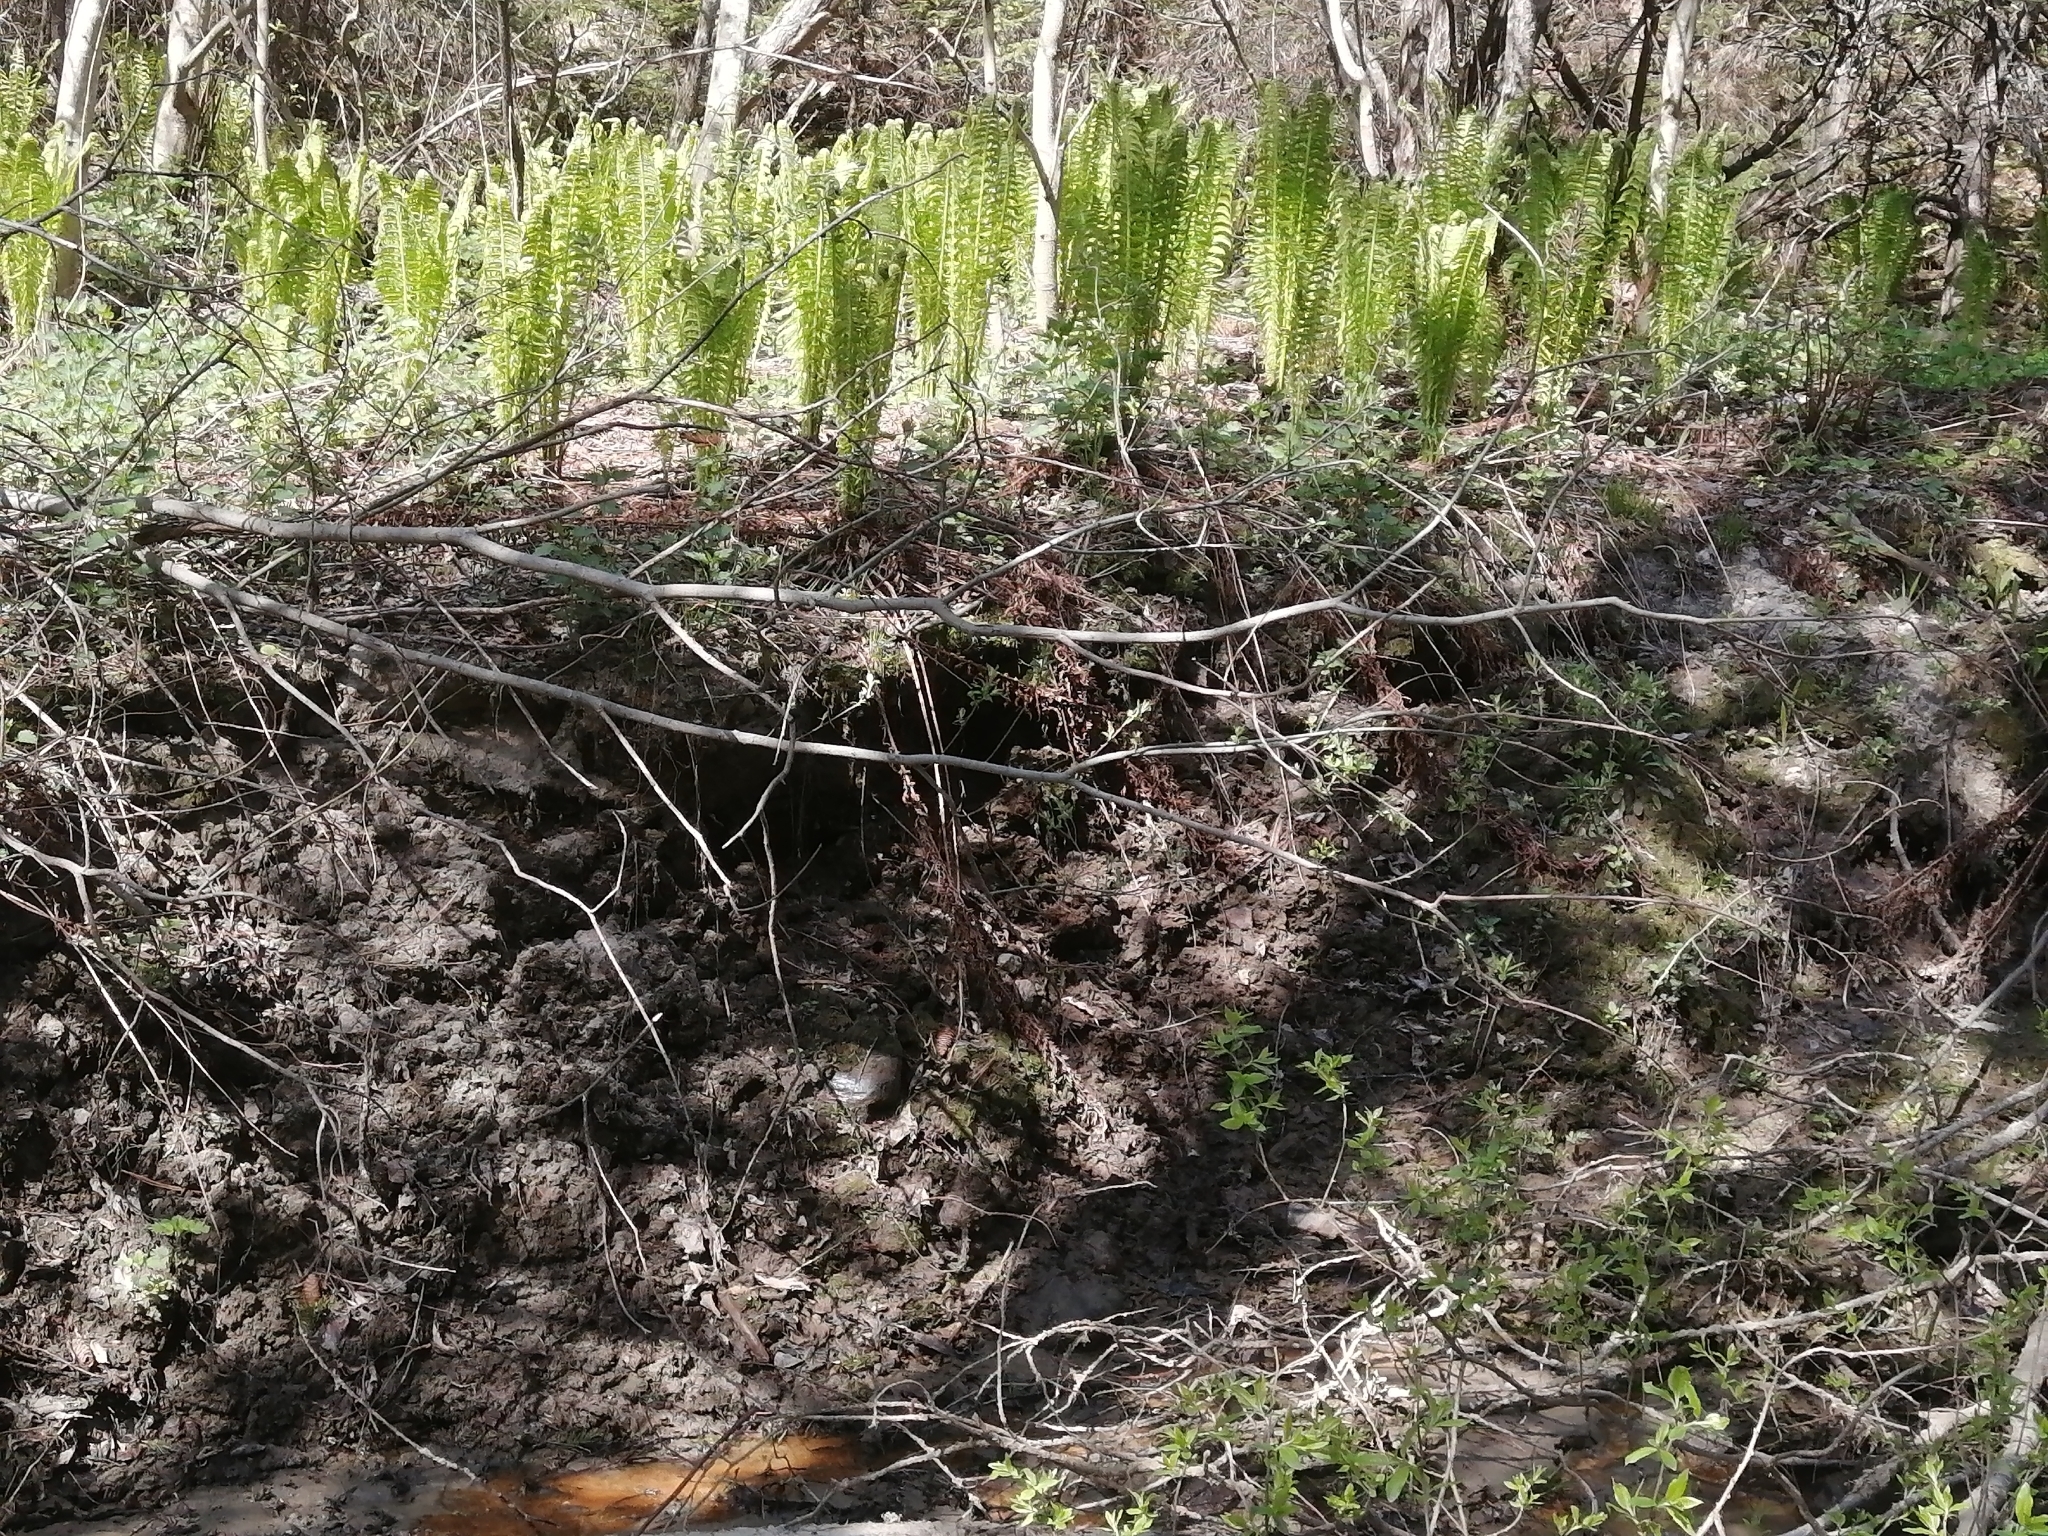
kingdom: Plantae
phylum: Tracheophyta
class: Polypodiopsida
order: Polypodiales
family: Onocleaceae
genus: Matteuccia
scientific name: Matteuccia struthiopteris
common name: Ostrich fern
